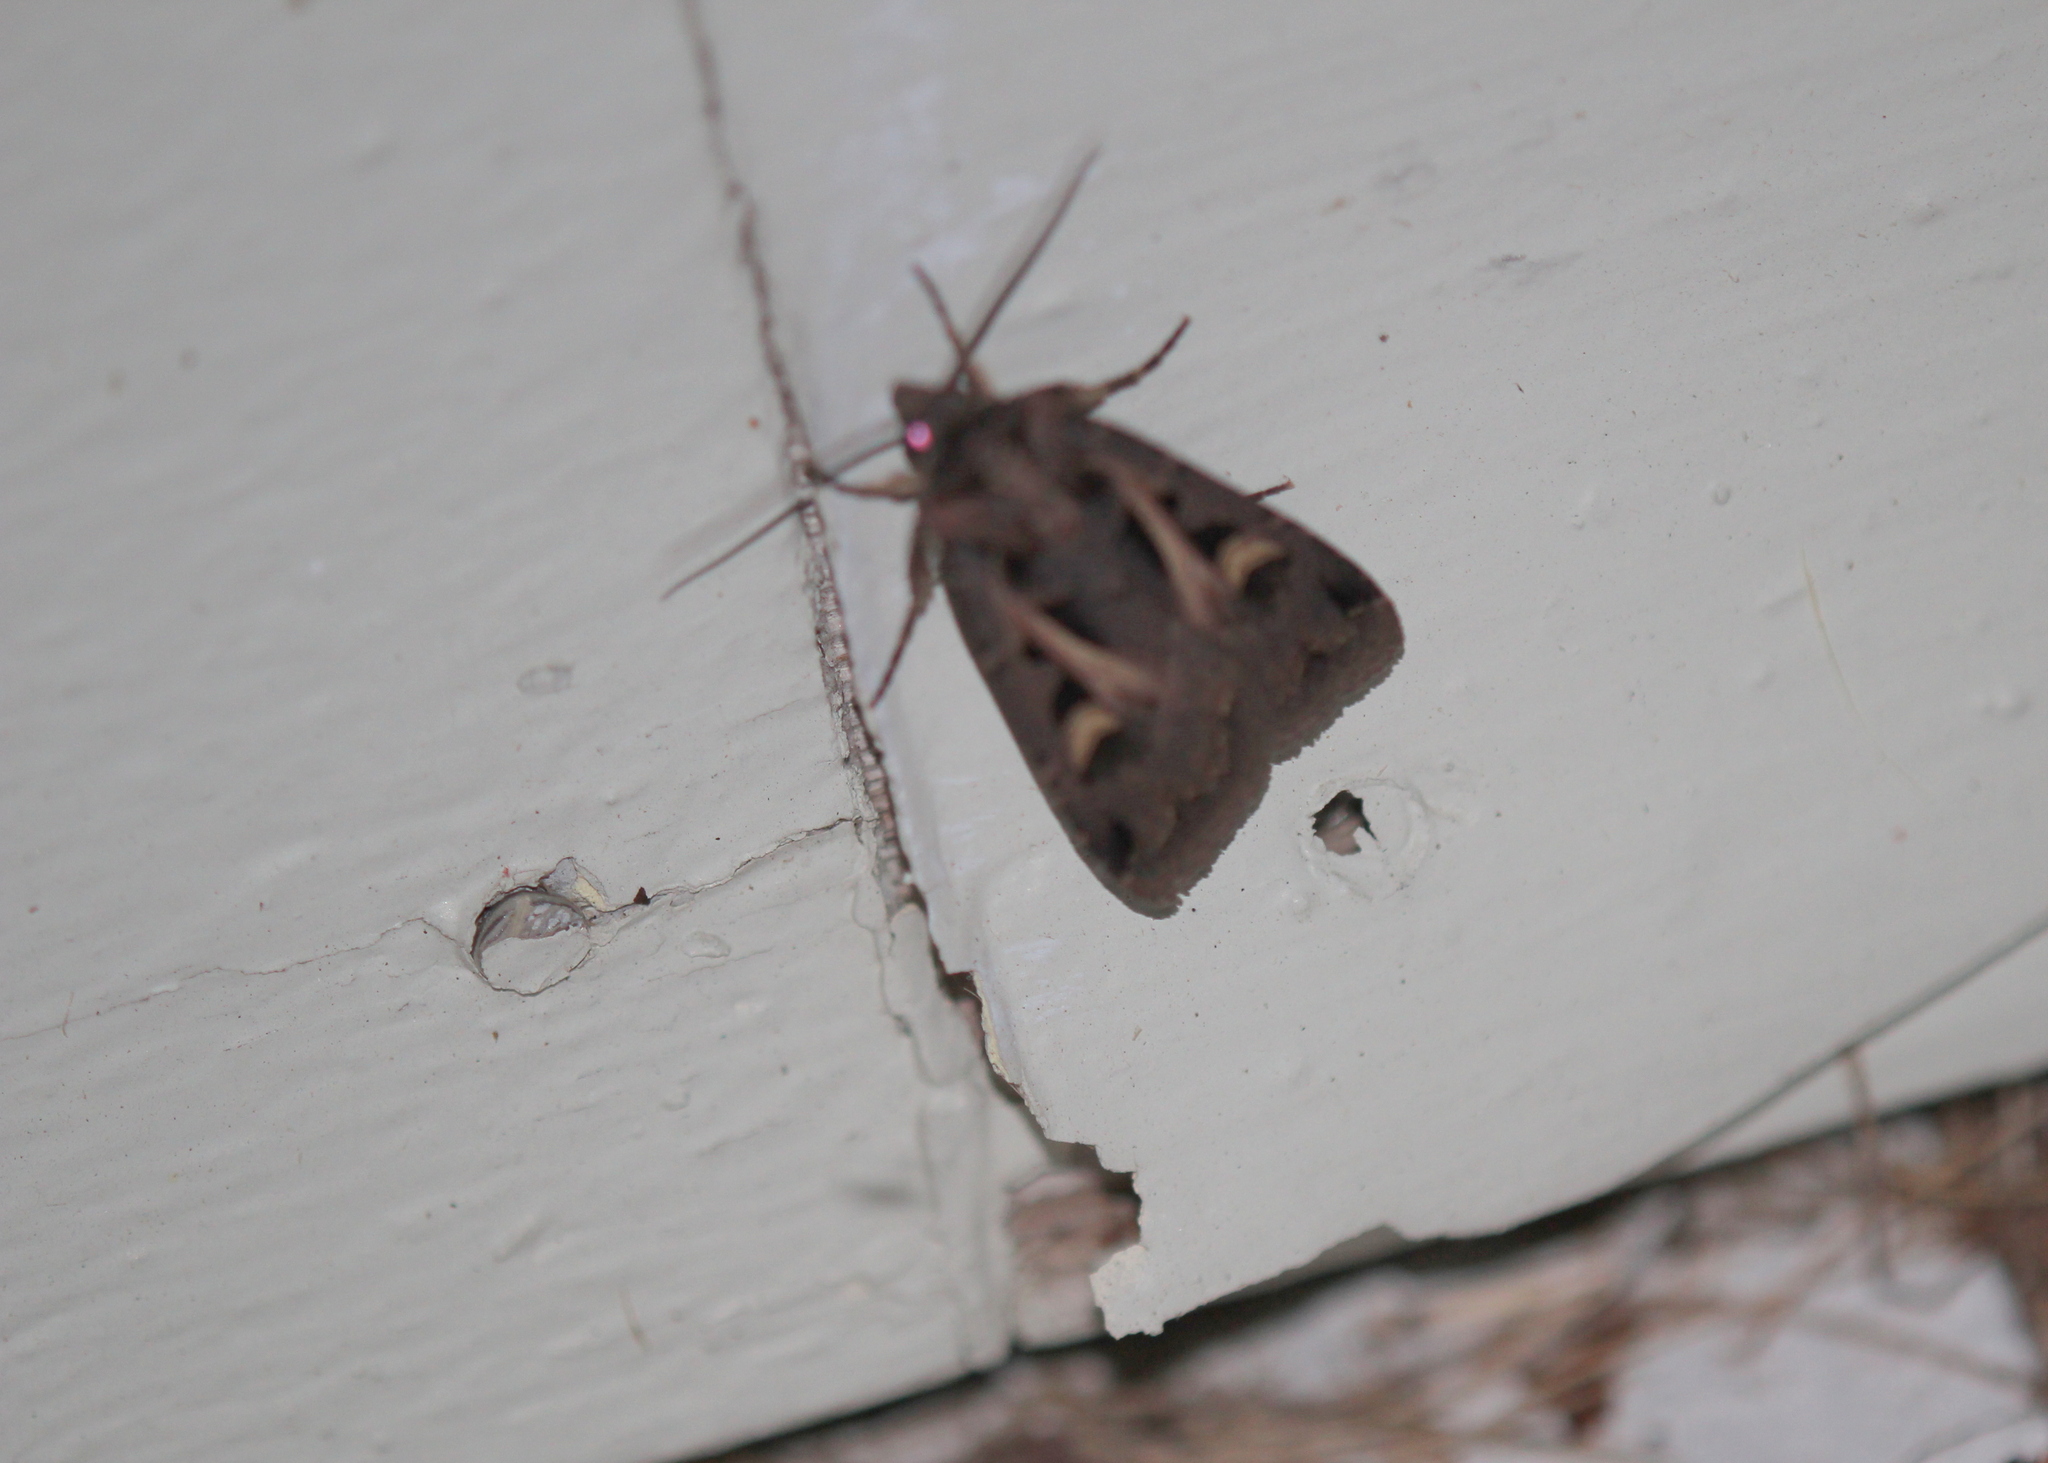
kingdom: Animalia
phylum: Arthropoda
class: Insecta
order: Lepidoptera
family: Noctuidae
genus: Feltia
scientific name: Feltia herilis
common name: Master's dart
